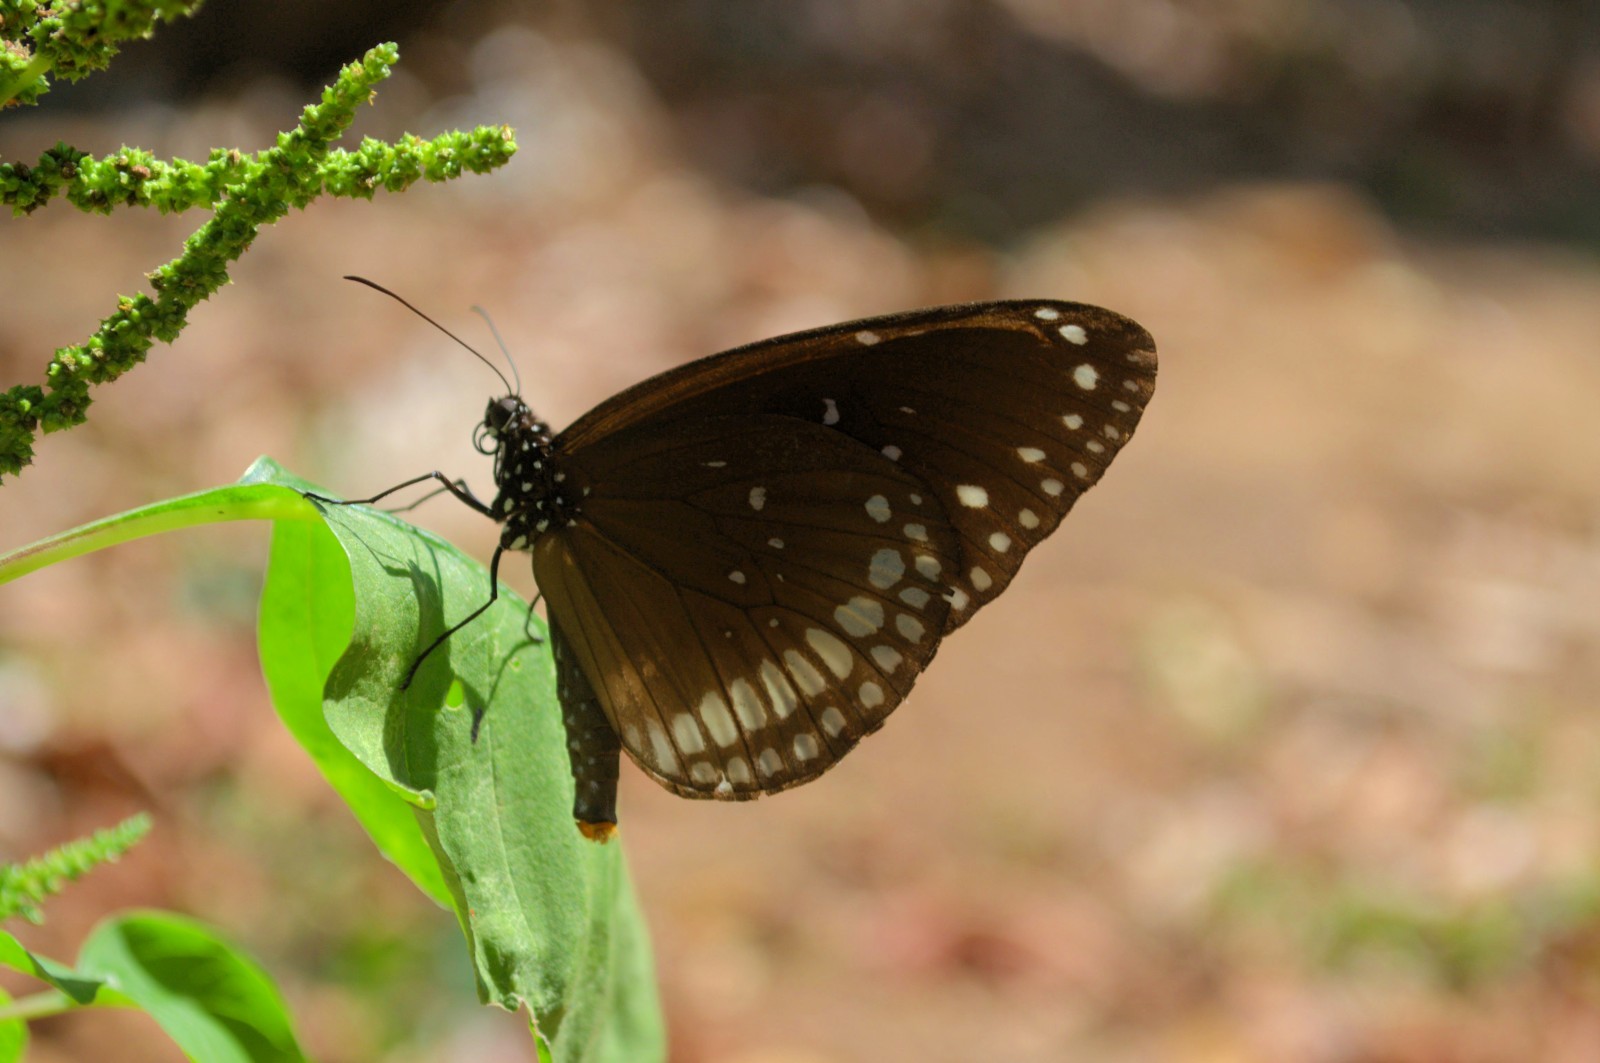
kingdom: Animalia
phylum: Arthropoda
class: Insecta
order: Lepidoptera
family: Nymphalidae
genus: Euploea
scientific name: Euploea core
